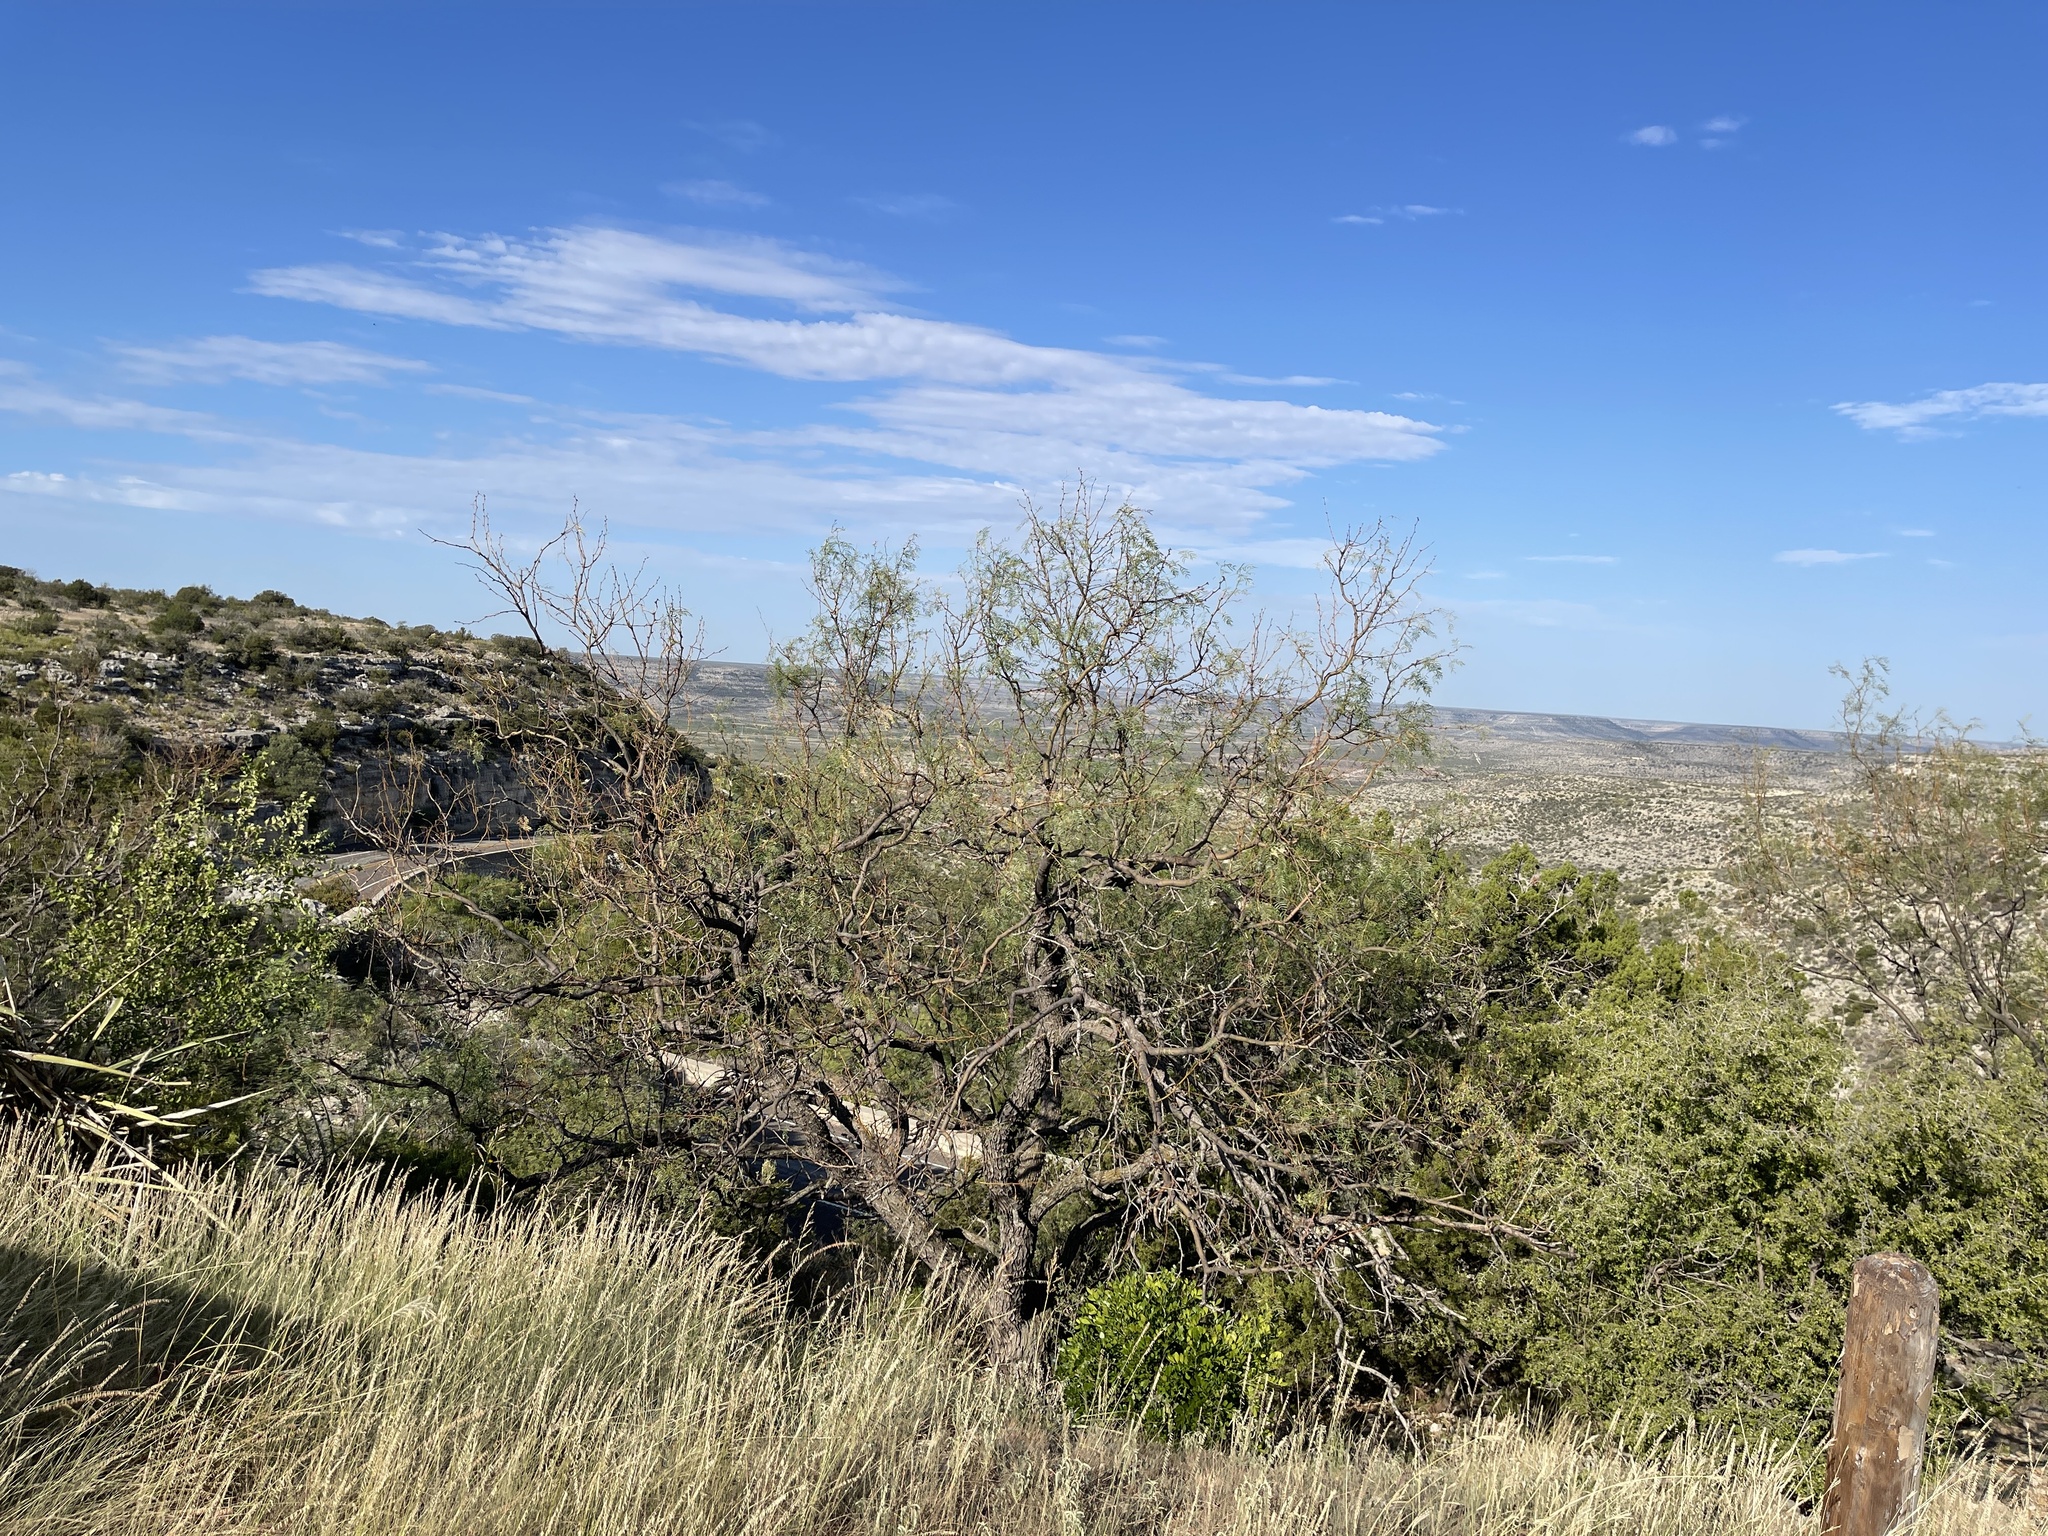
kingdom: Plantae
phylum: Tracheophyta
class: Magnoliopsida
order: Fabales
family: Fabaceae
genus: Prosopis
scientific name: Prosopis glandulosa
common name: Honey mesquite
